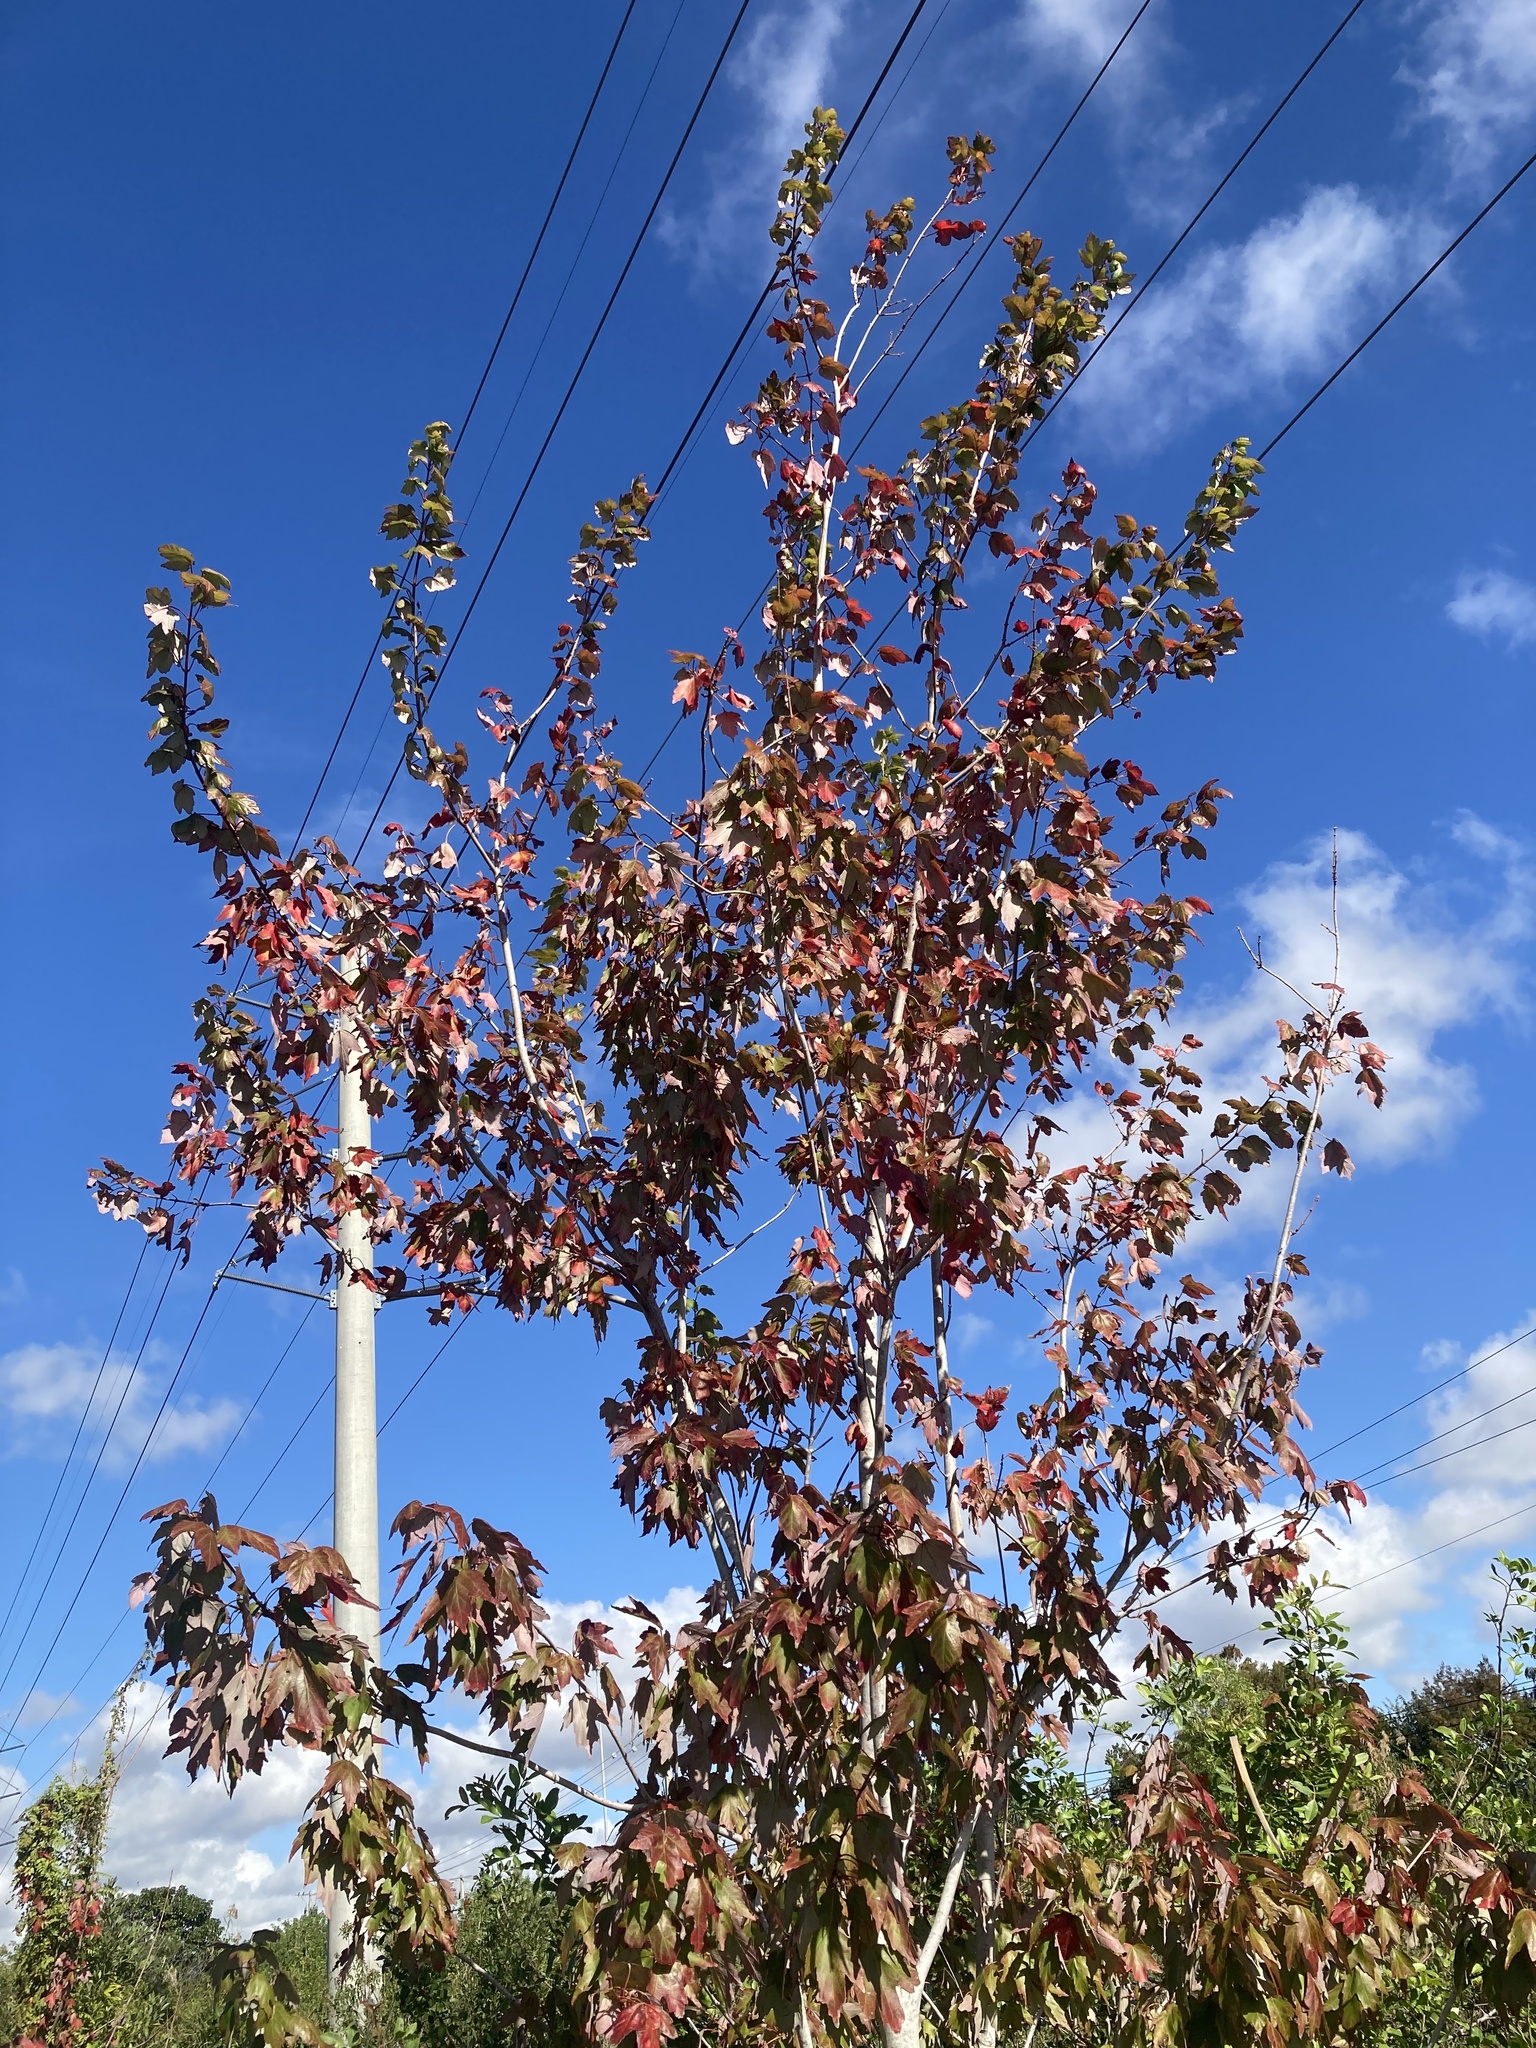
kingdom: Plantae
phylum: Tracheophyta
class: Magnoliopsida
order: Sapindales
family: Sapindaceae
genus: Acer
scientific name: Acer rubrum
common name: Red maple
